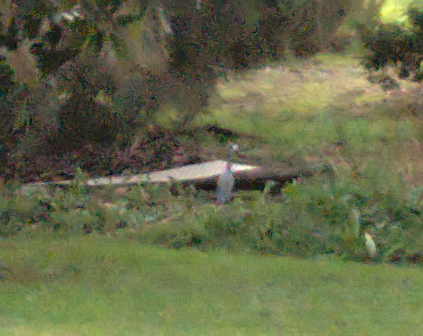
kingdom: Animalia
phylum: Chordata
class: Aves
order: Pelecaniformes
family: Ardeidae
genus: Egretta
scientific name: Egretta novaehollandiae
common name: White-faced heron
